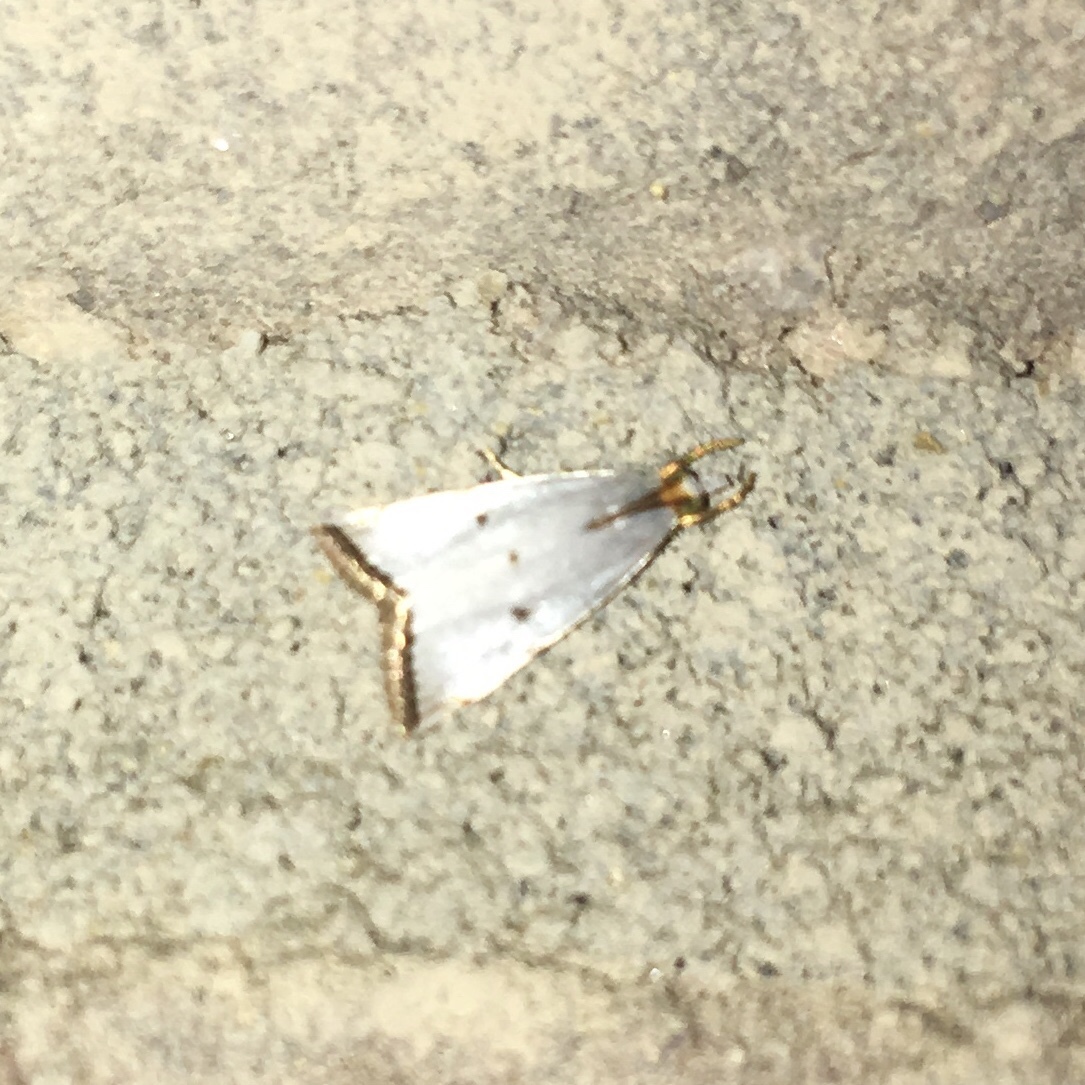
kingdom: Animalia
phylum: Arthropoda
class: Insecta
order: Lepidoptera
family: Crambidae
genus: Argyria
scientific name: Argyria pusillalis
